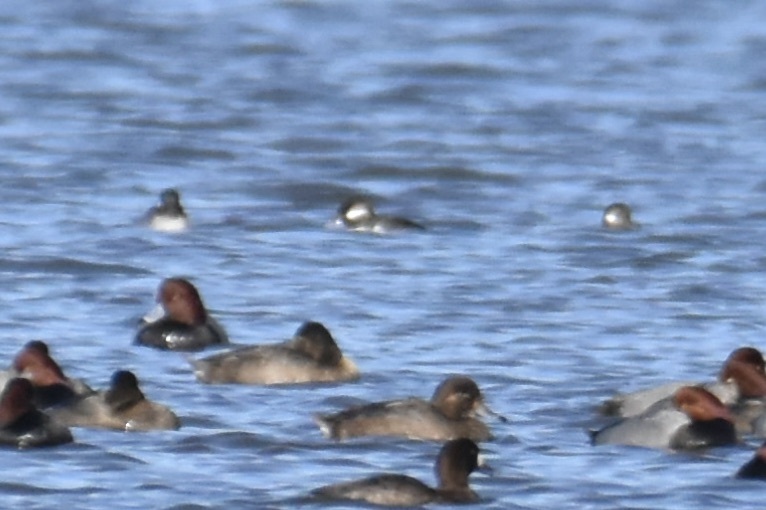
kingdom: Animalia
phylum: Chordata
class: Aves
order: Anseriformes
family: Anatidae
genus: Bucephala
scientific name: Bucephala albeola
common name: Bufflehead
